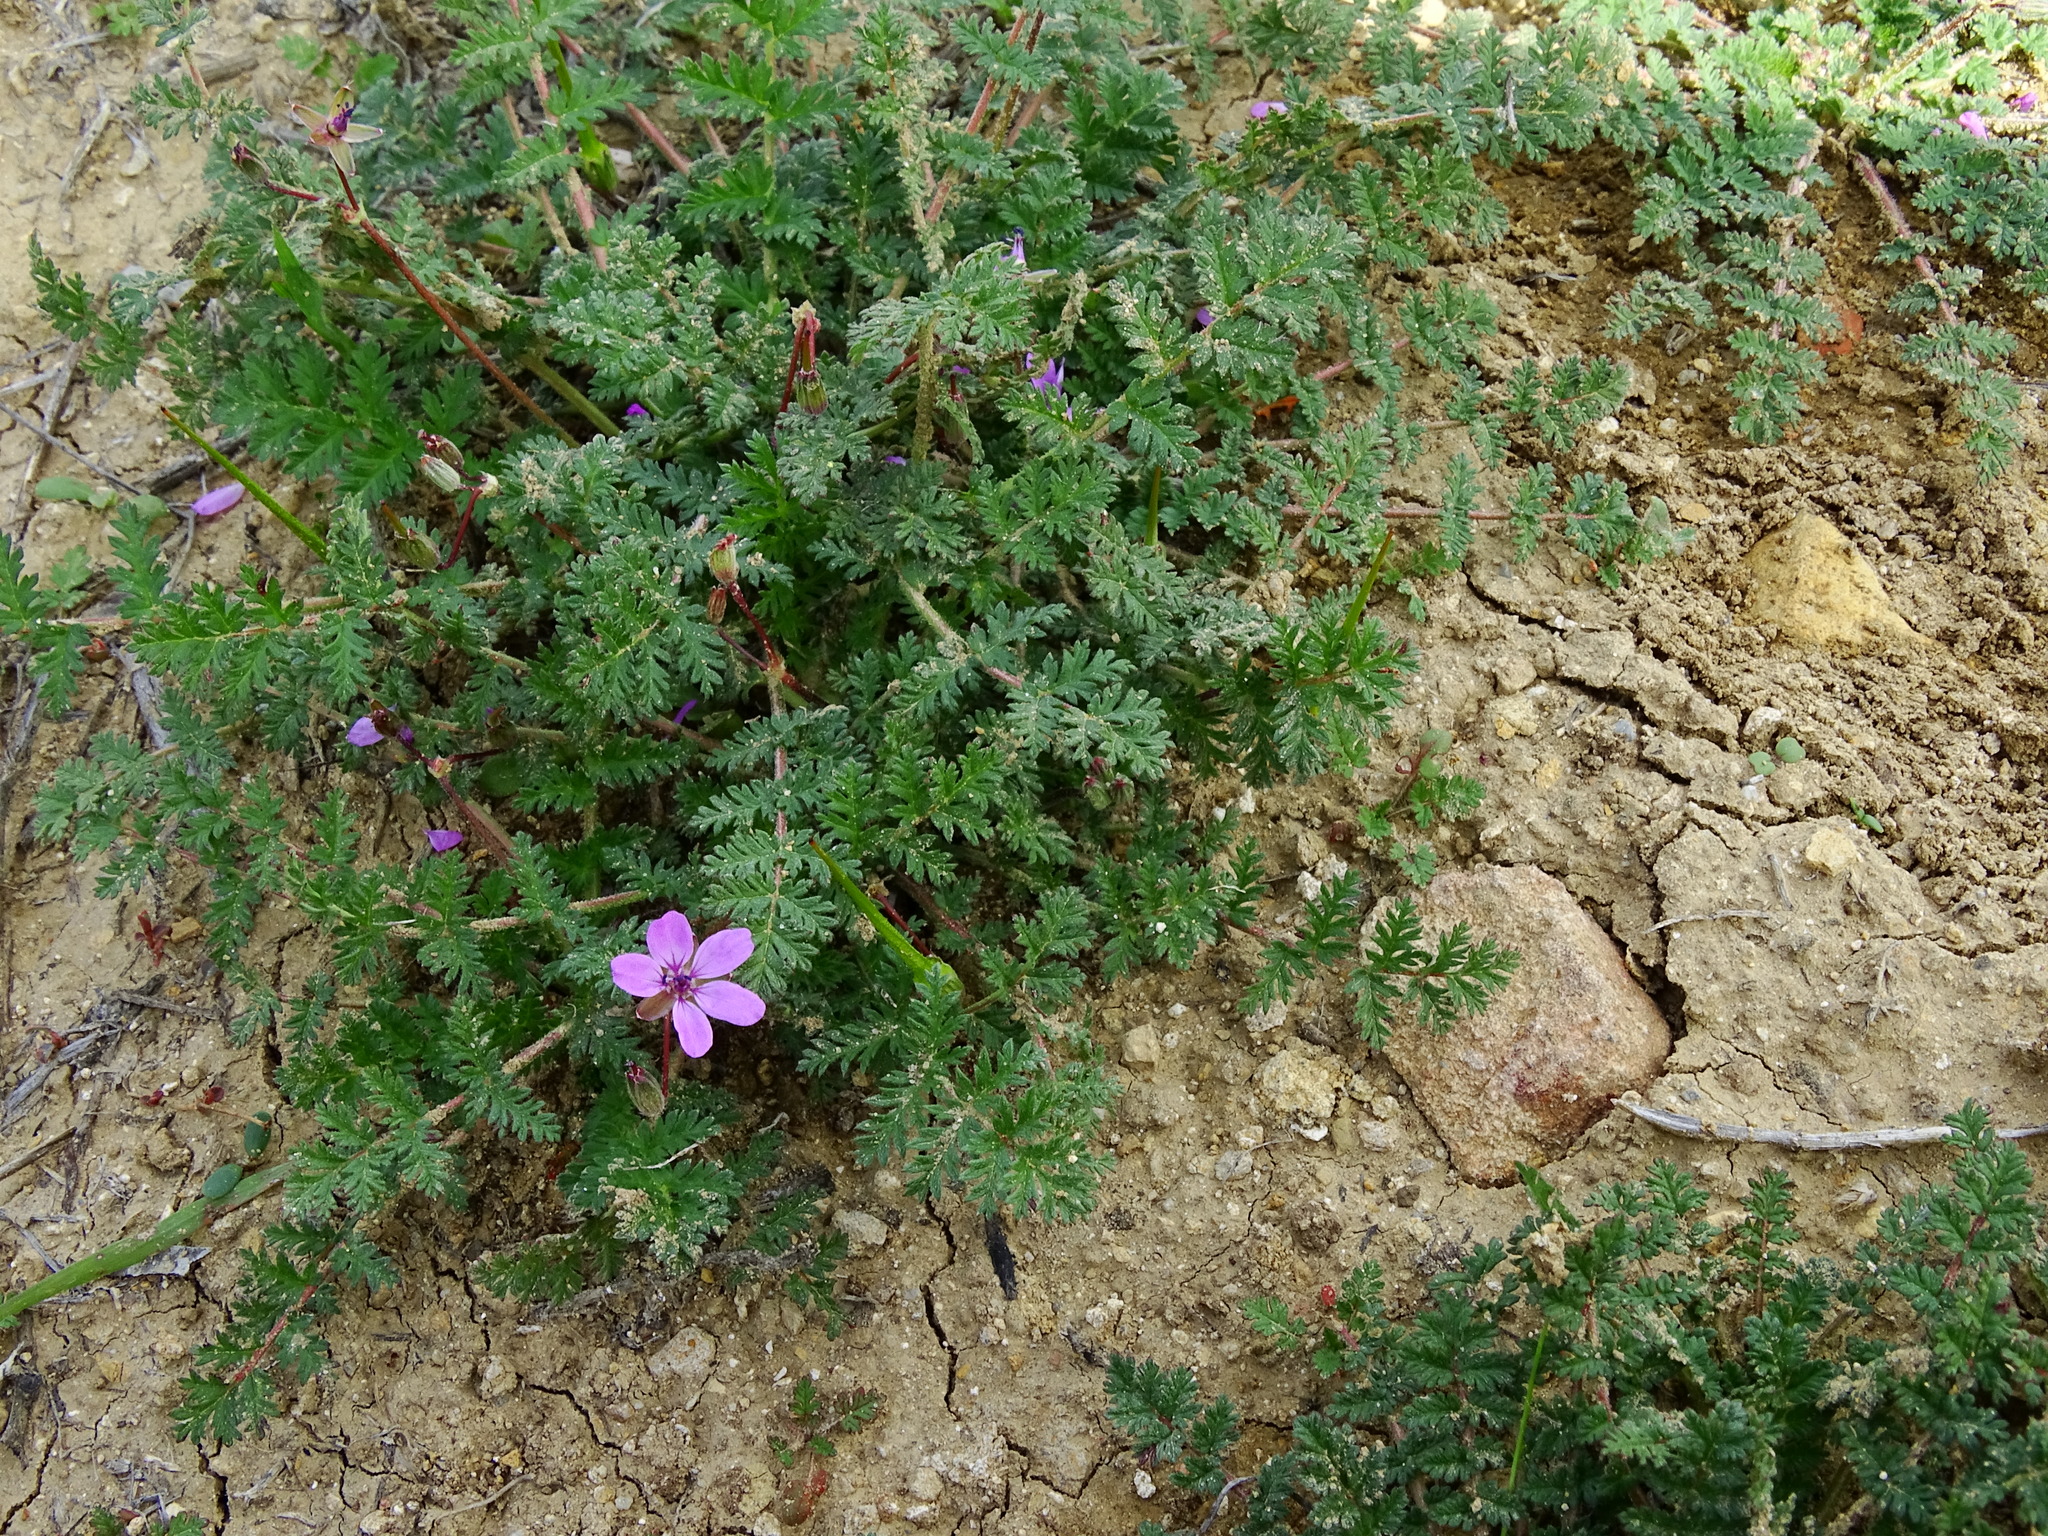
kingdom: Plantae
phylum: Tracheophyta
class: Magnoliopsida
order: Geraniales
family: Geraniaceae
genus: Erodium
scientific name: Erodium cicutarium
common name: Common stork's-bill
